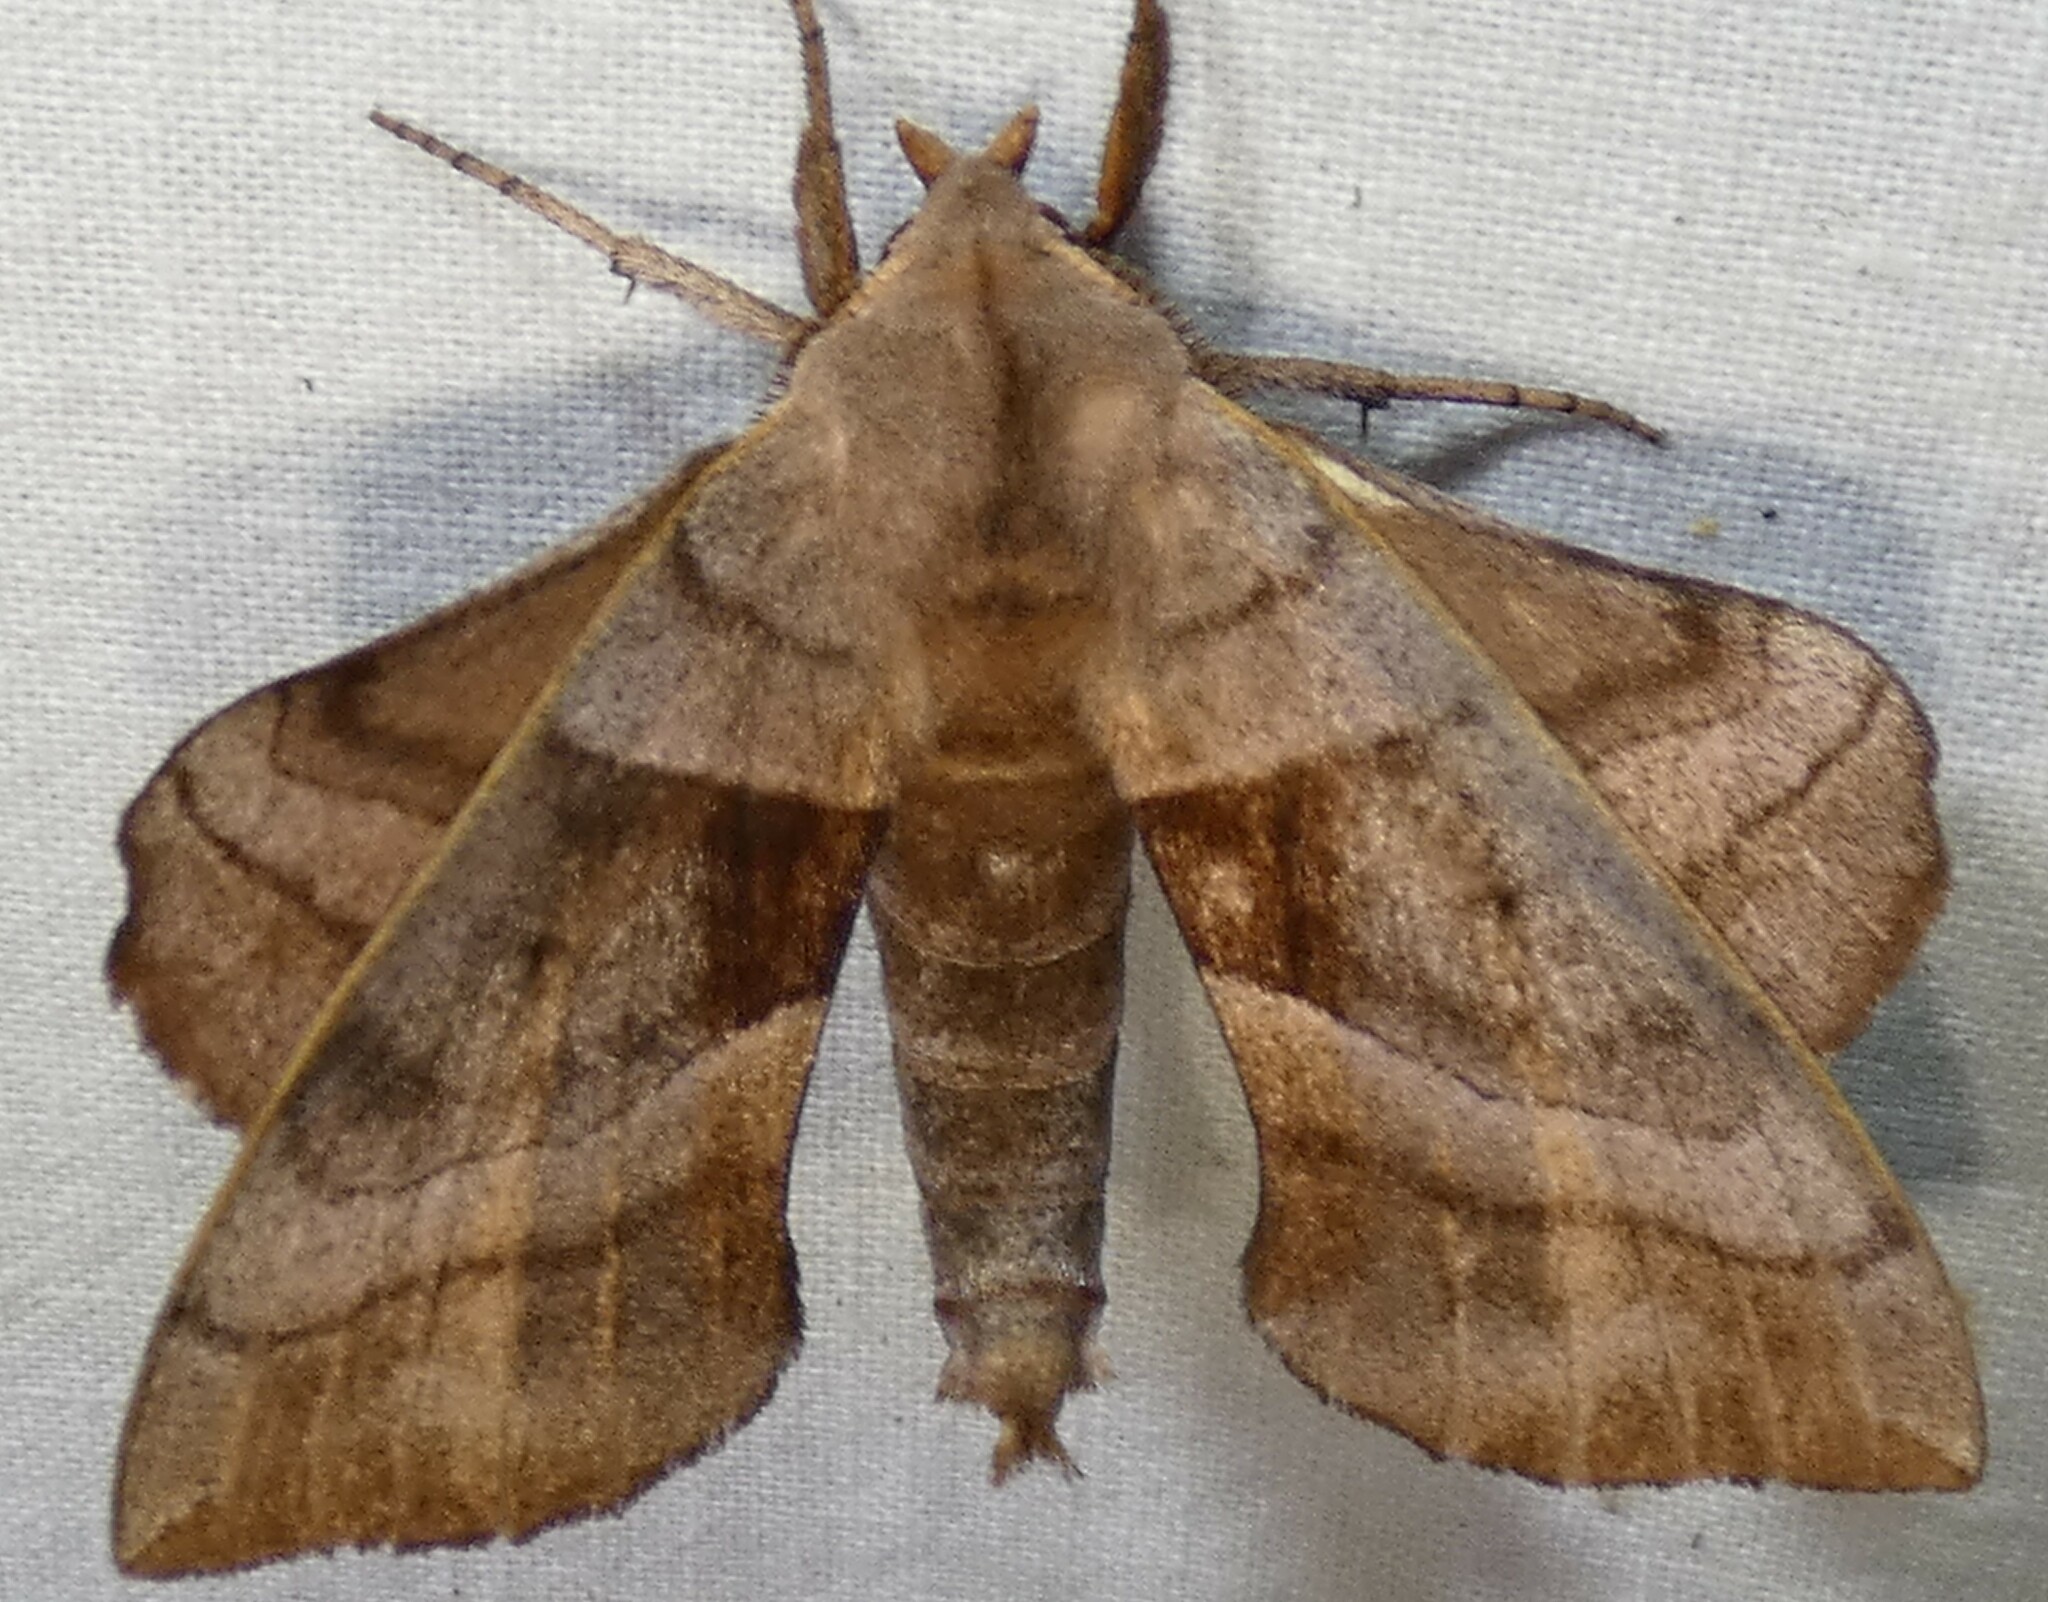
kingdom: Animalia
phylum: Arthropoda
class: Insecta
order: Lepidoptera
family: Sphingidae
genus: Amorpha
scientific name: Amorpha juglandis
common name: Walnut sphinx
